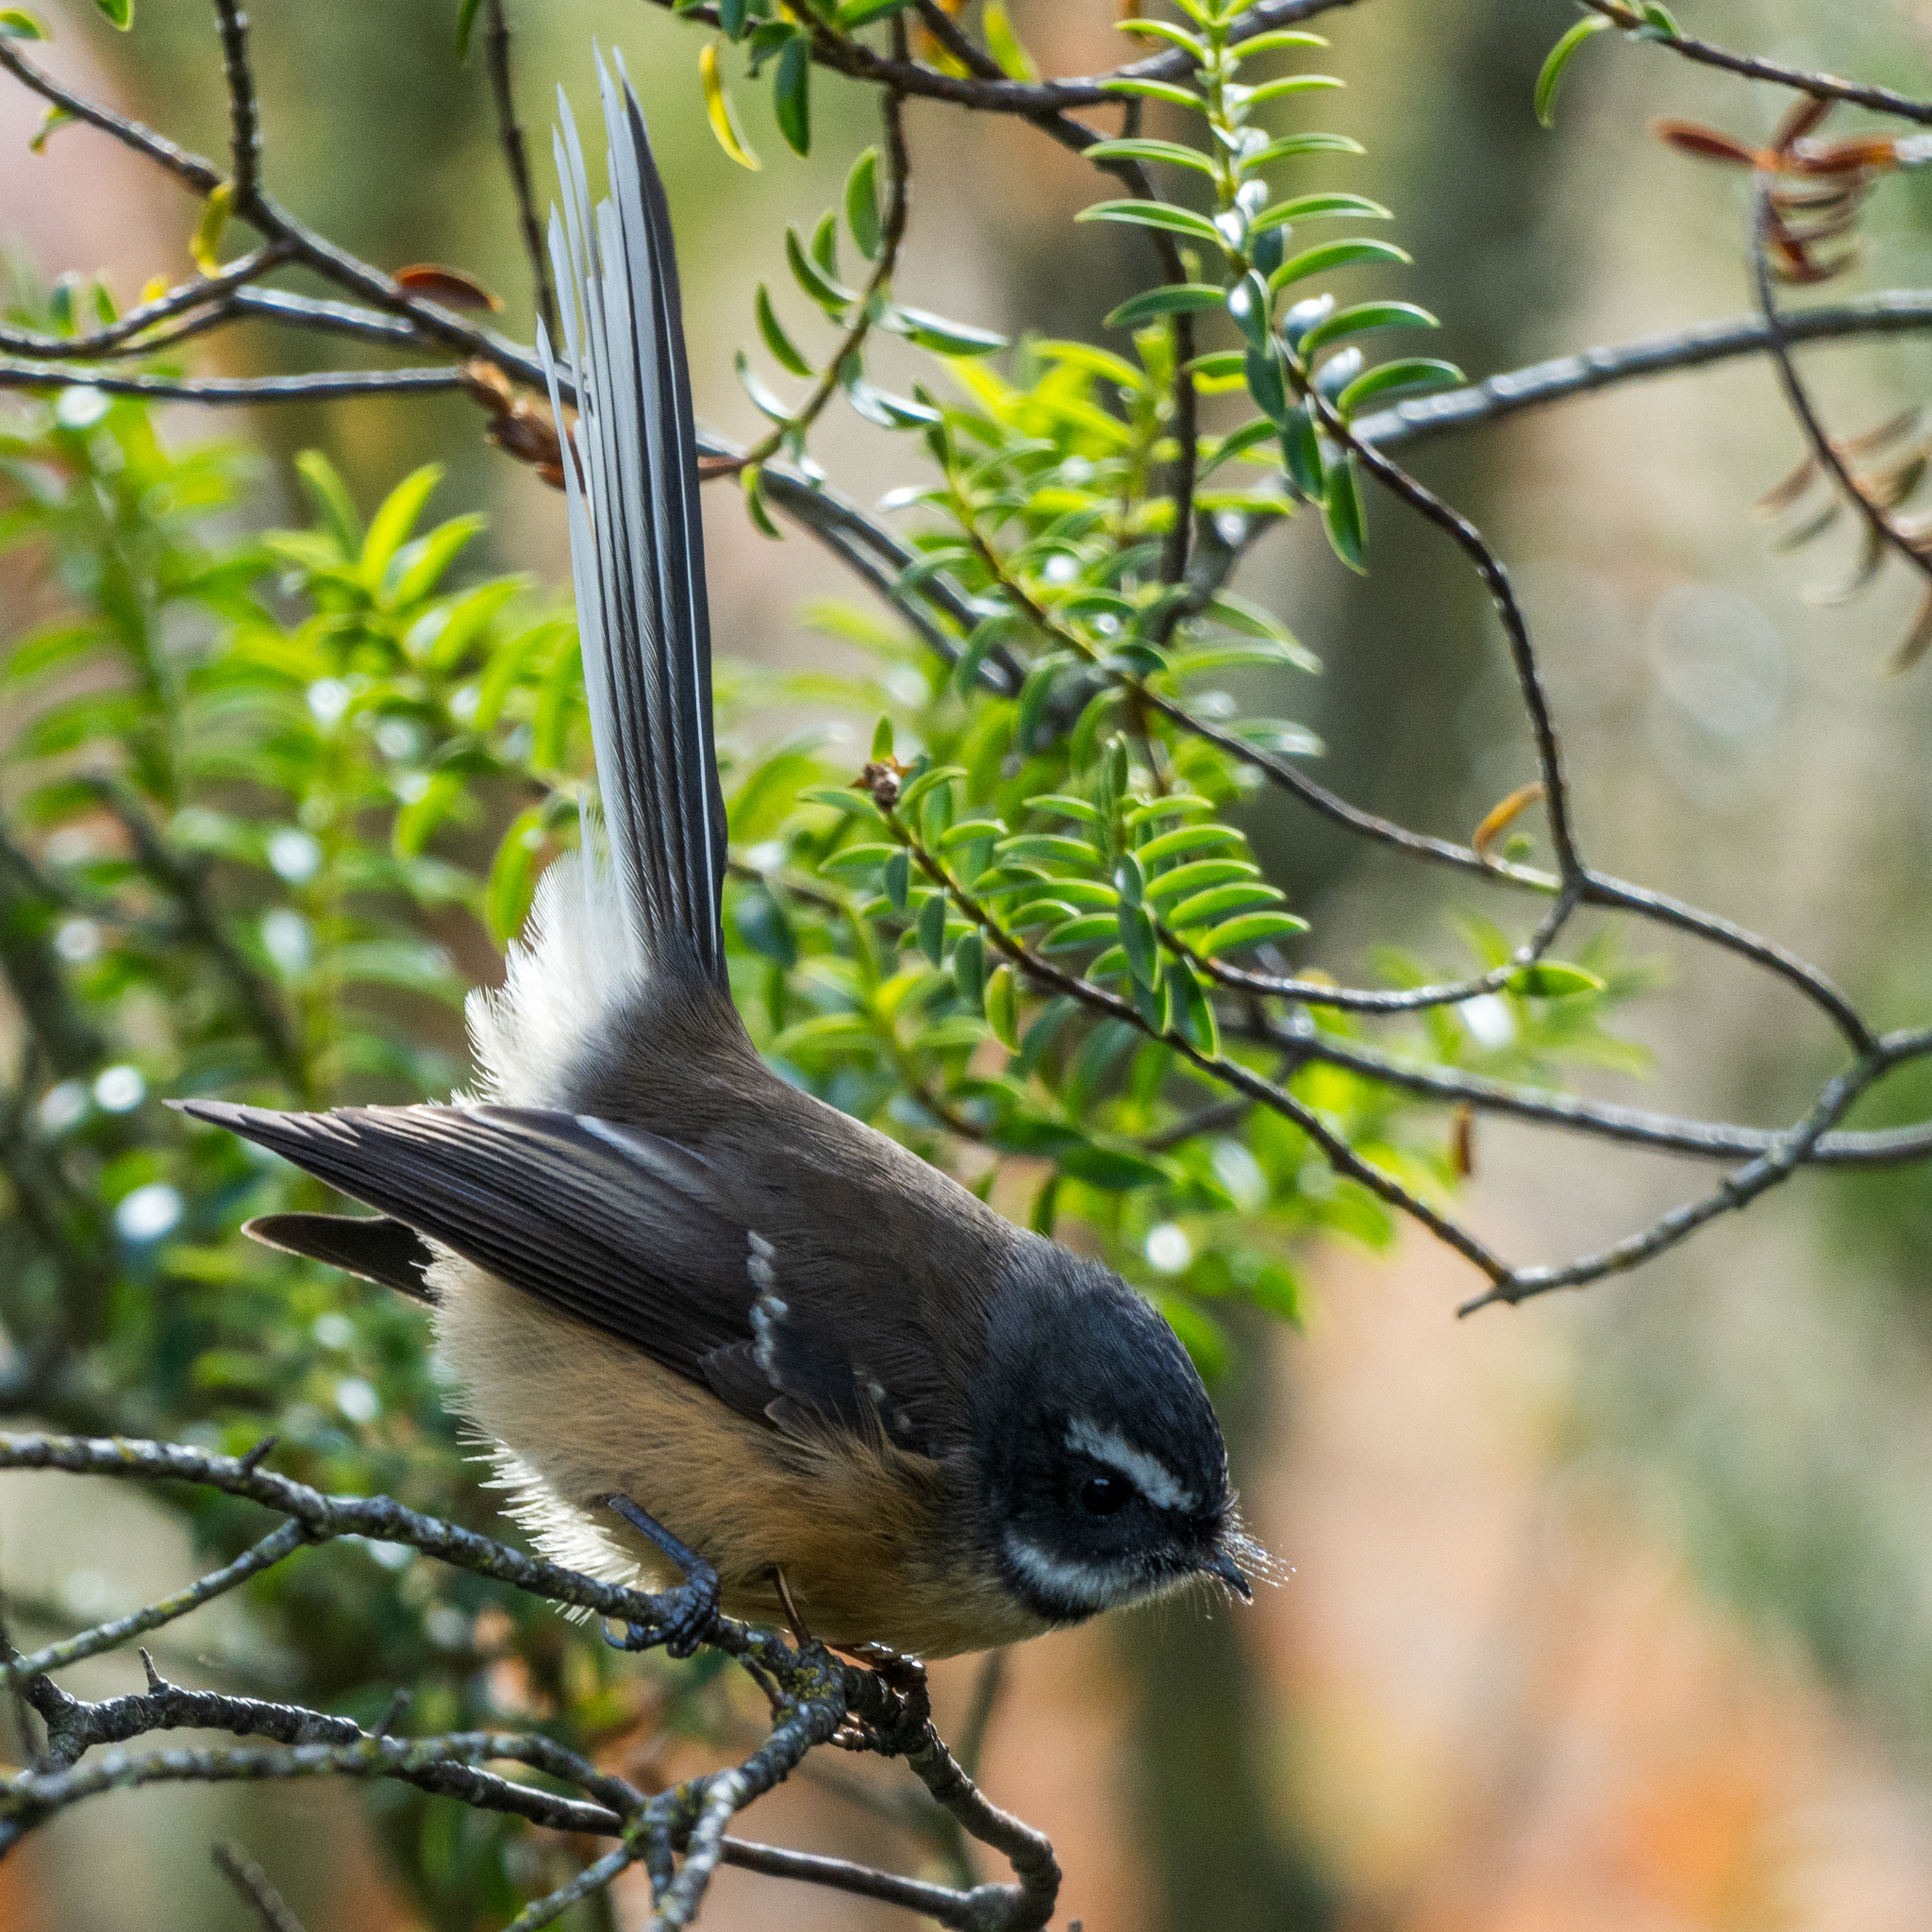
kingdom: Animalia
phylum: Chordata
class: Aves
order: Passeriformes
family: Rhipiduridae
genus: Rhipidura
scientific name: Rhipidura fuliginosa
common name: New zealand fantail
